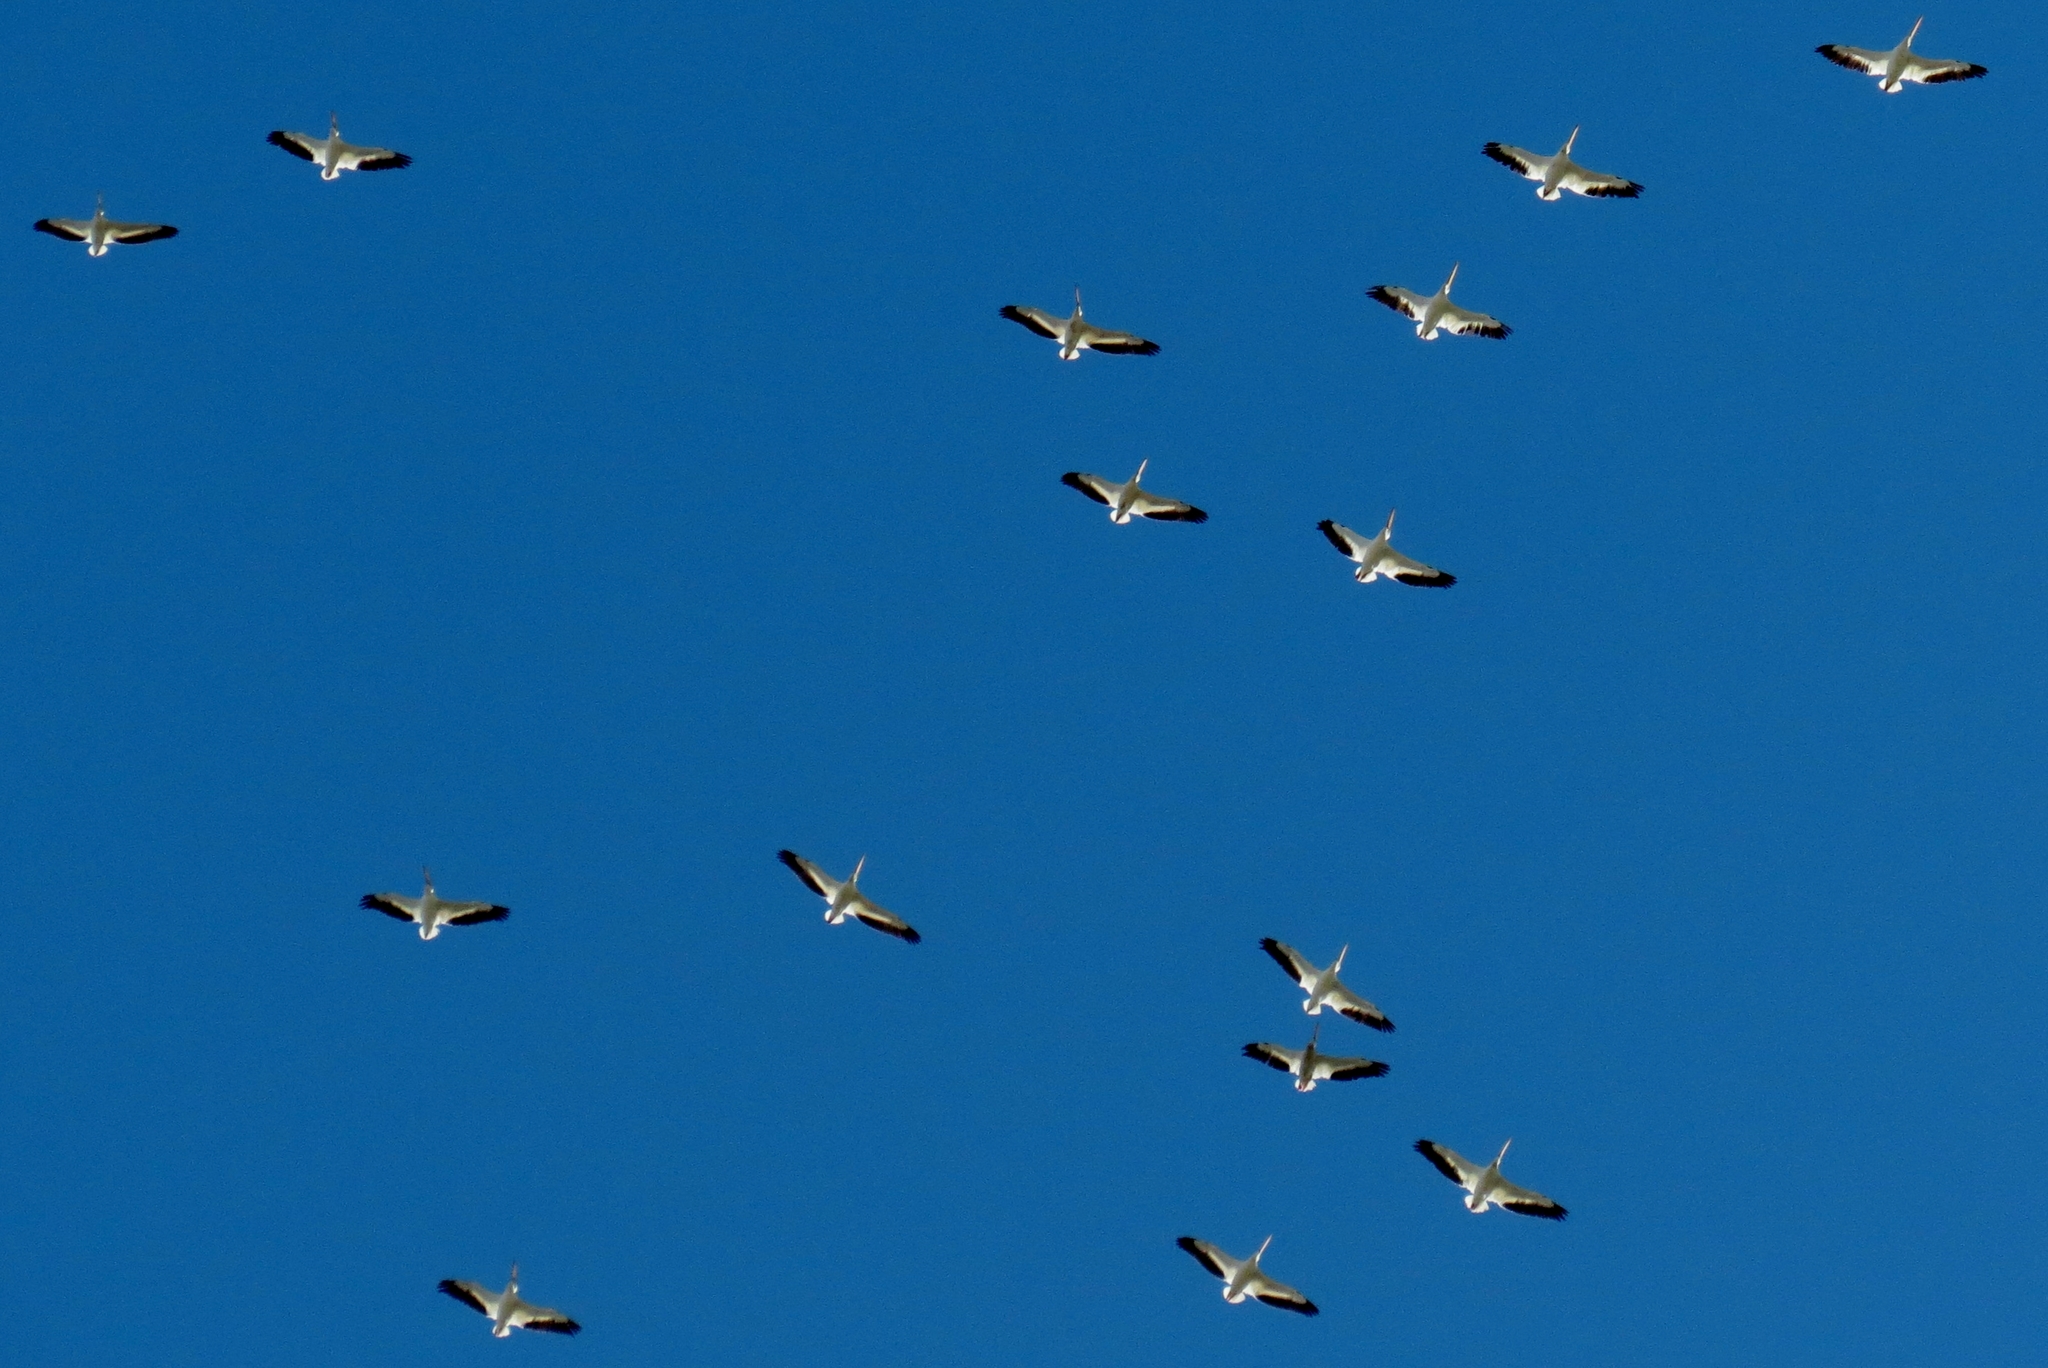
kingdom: Animalia
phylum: Chordata
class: Aves
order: Pelecaniformes
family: Pelecanidae
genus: Pelecanus
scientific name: Pelecanus erythrorhynchos
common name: American white pelican
